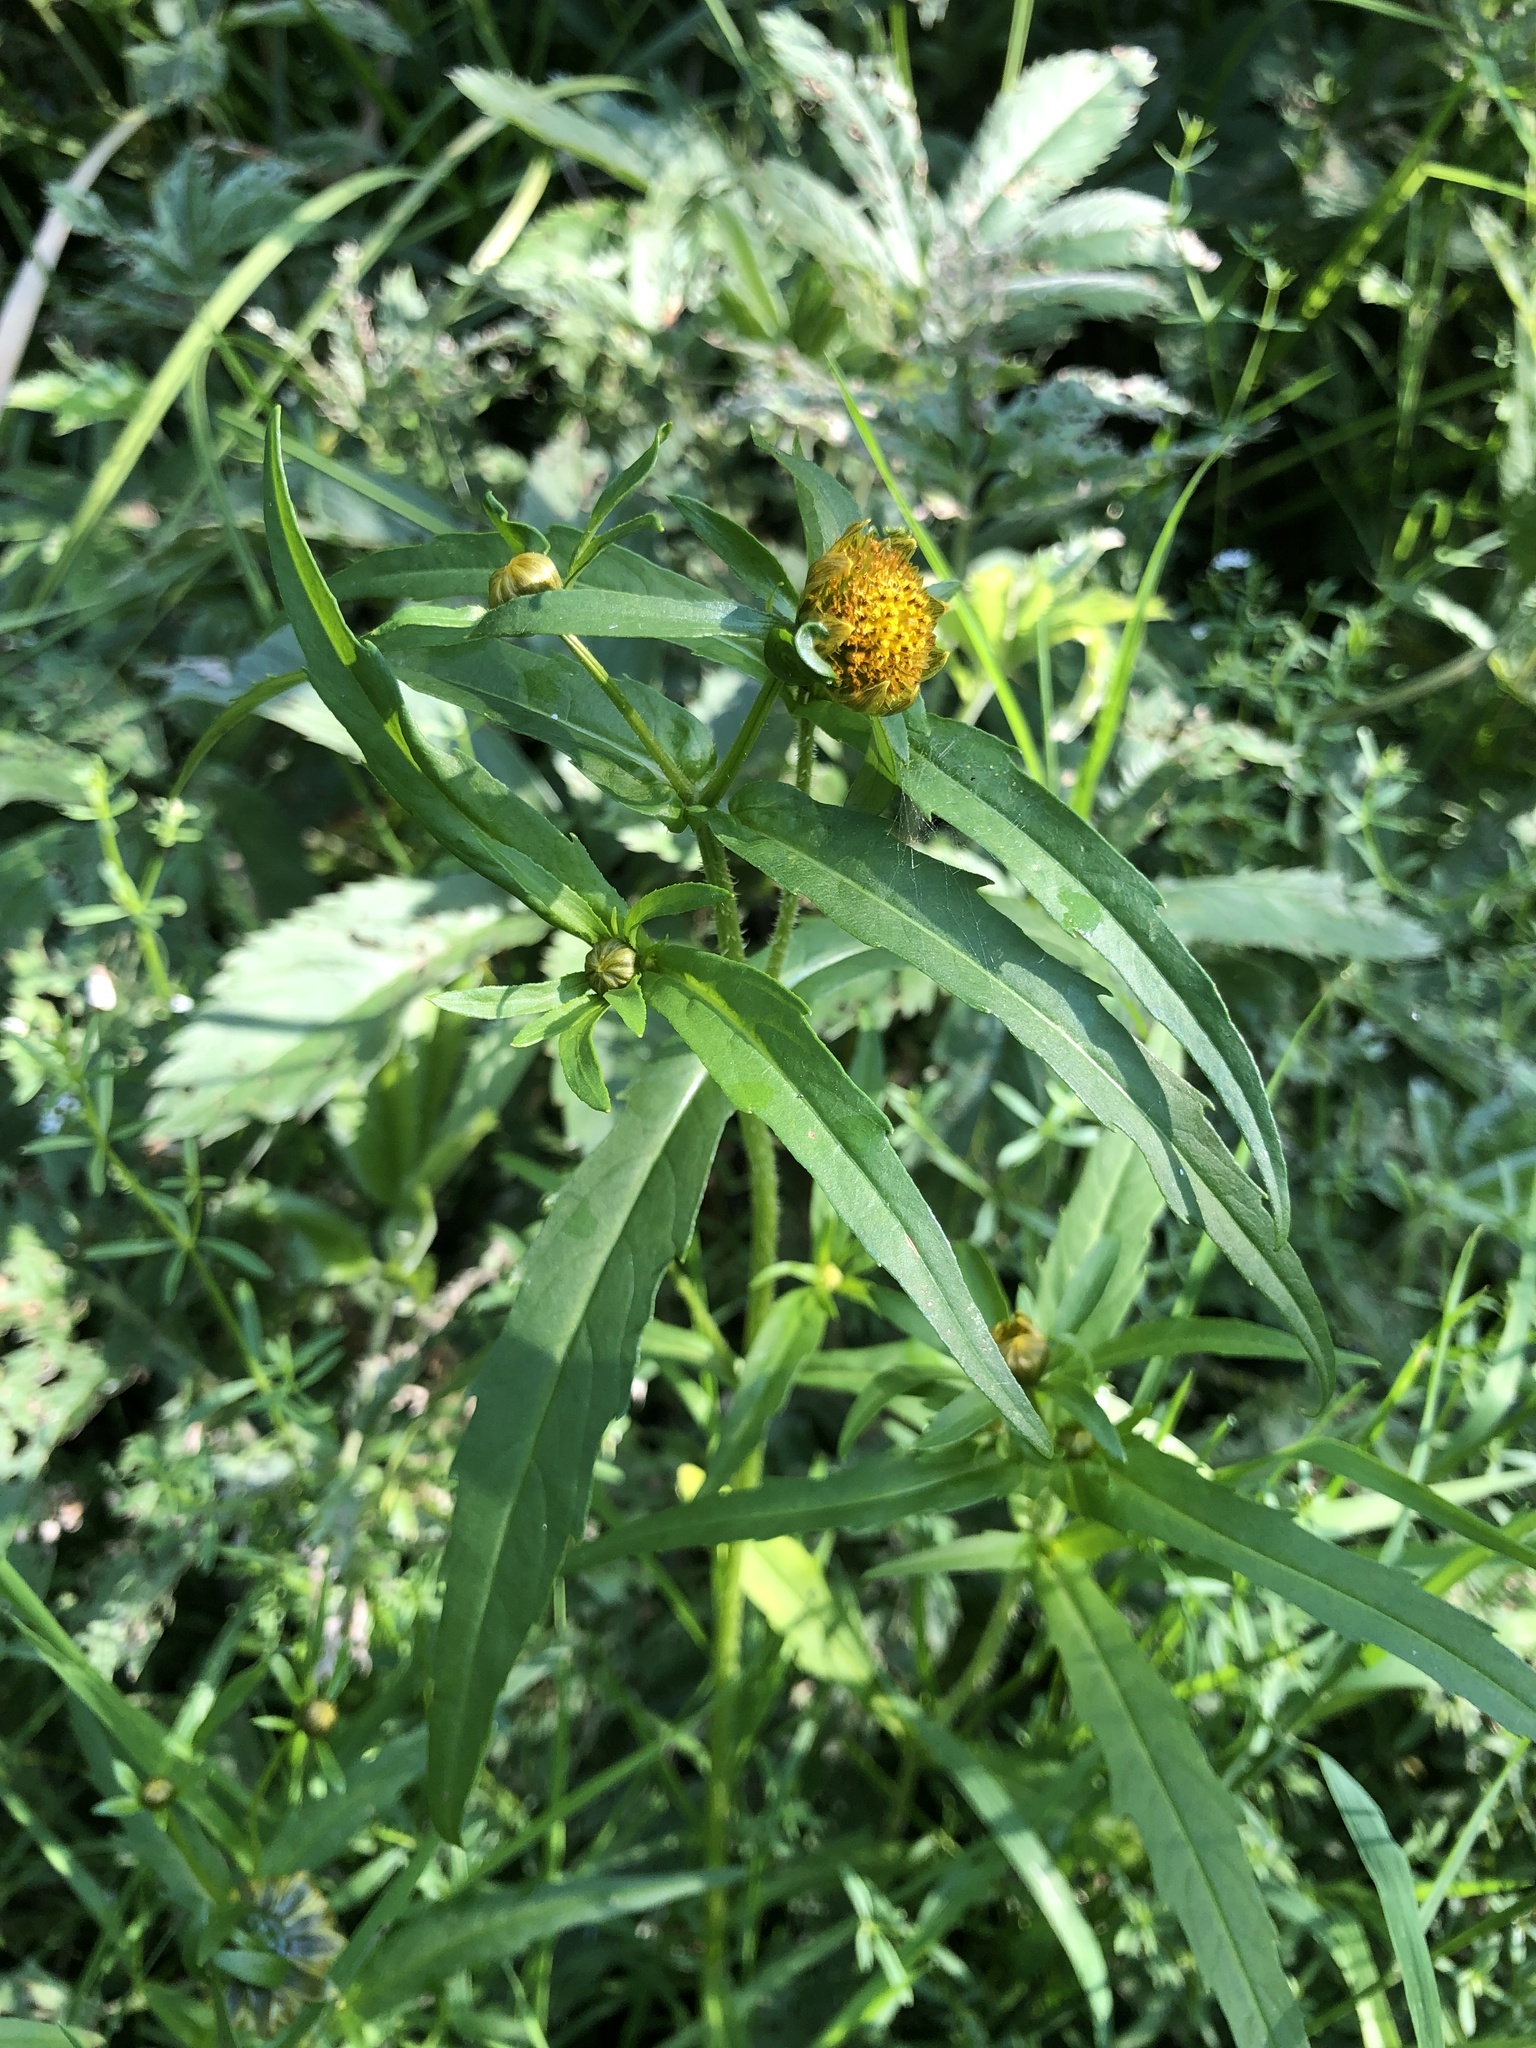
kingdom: Plantae
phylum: Tracheophyta
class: Magnoliopsida
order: Asterales
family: Asteraceae
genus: Bidens
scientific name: Bidens cernua
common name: Nodding bur-marigold
